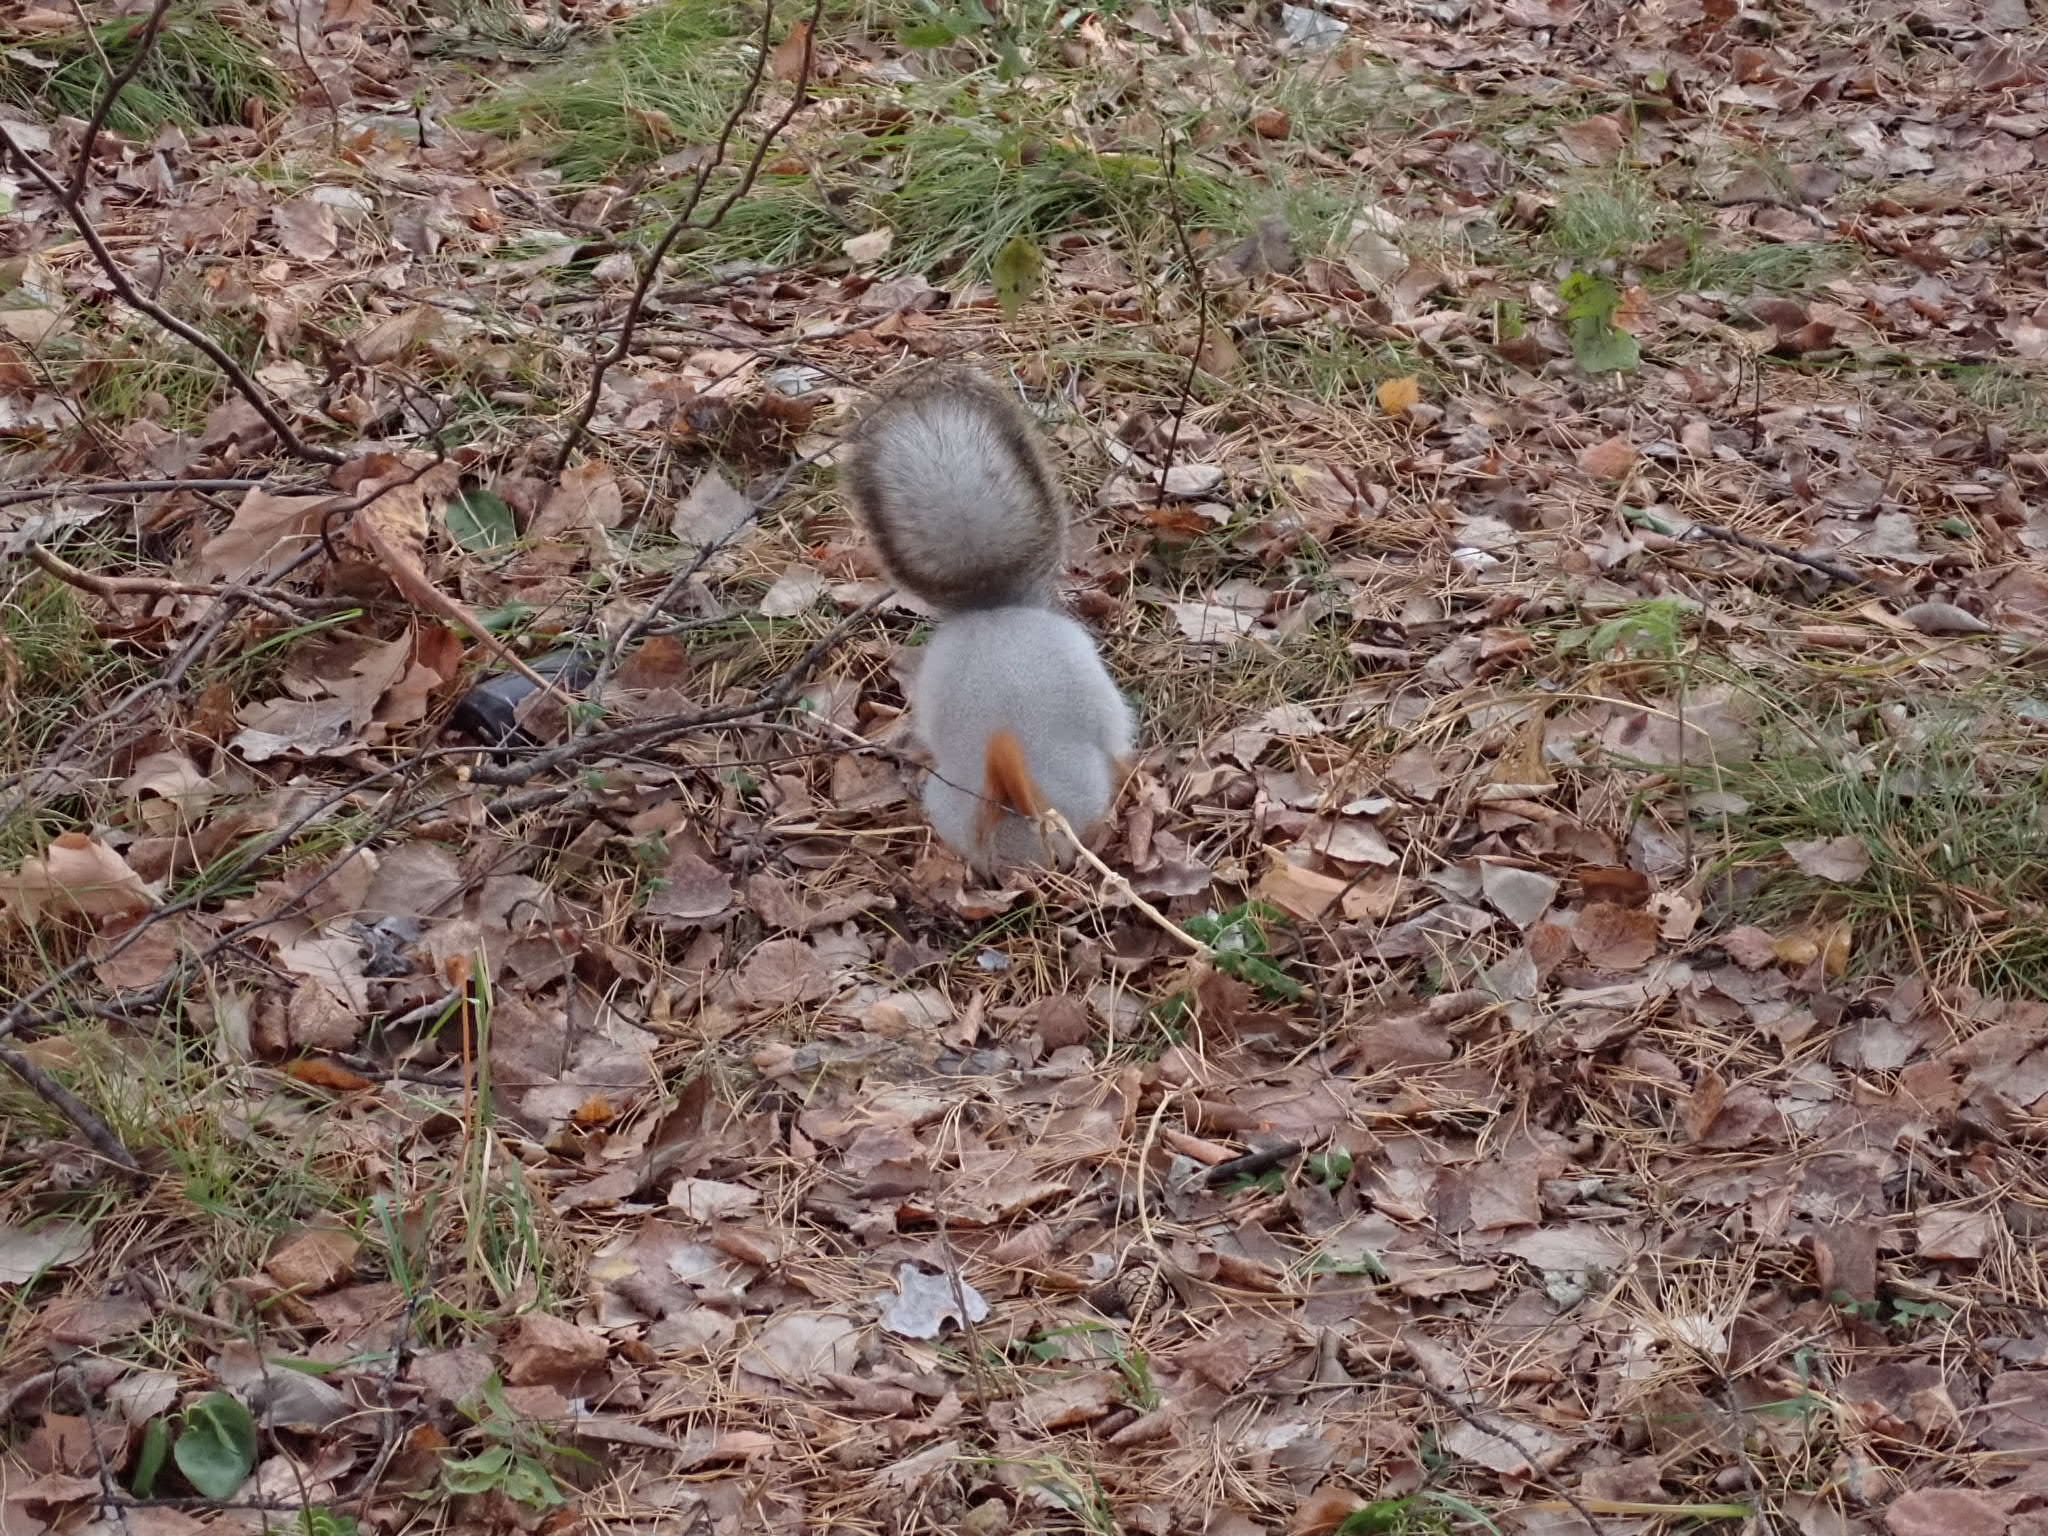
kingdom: Animalia
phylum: Chordata
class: Mammalia
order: Rodentia
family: Sciuridae
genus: Sciurus
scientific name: Sciurus vulgaris
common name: Eurasian red squirrel
